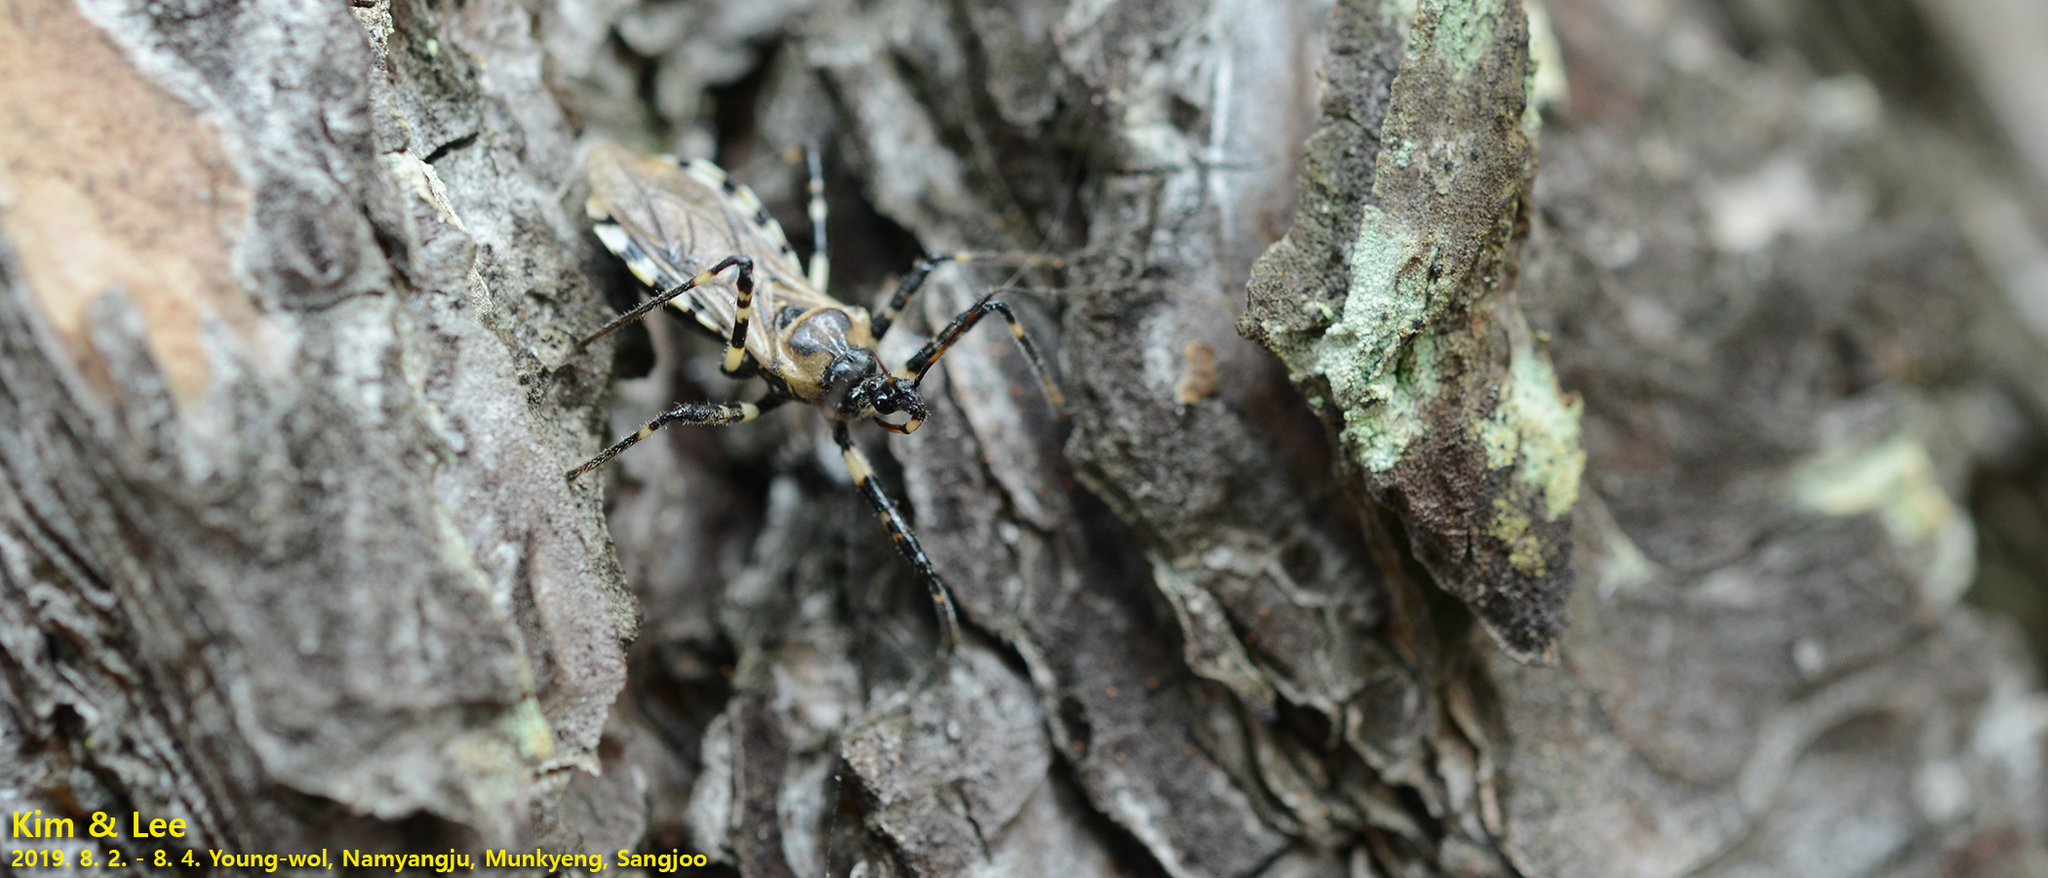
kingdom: Animalia
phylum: Arthropoda
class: Insecta
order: Hemiptera
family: Reduviidae
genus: Sphedanolestes
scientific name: Sphedanolestes impressicollis
